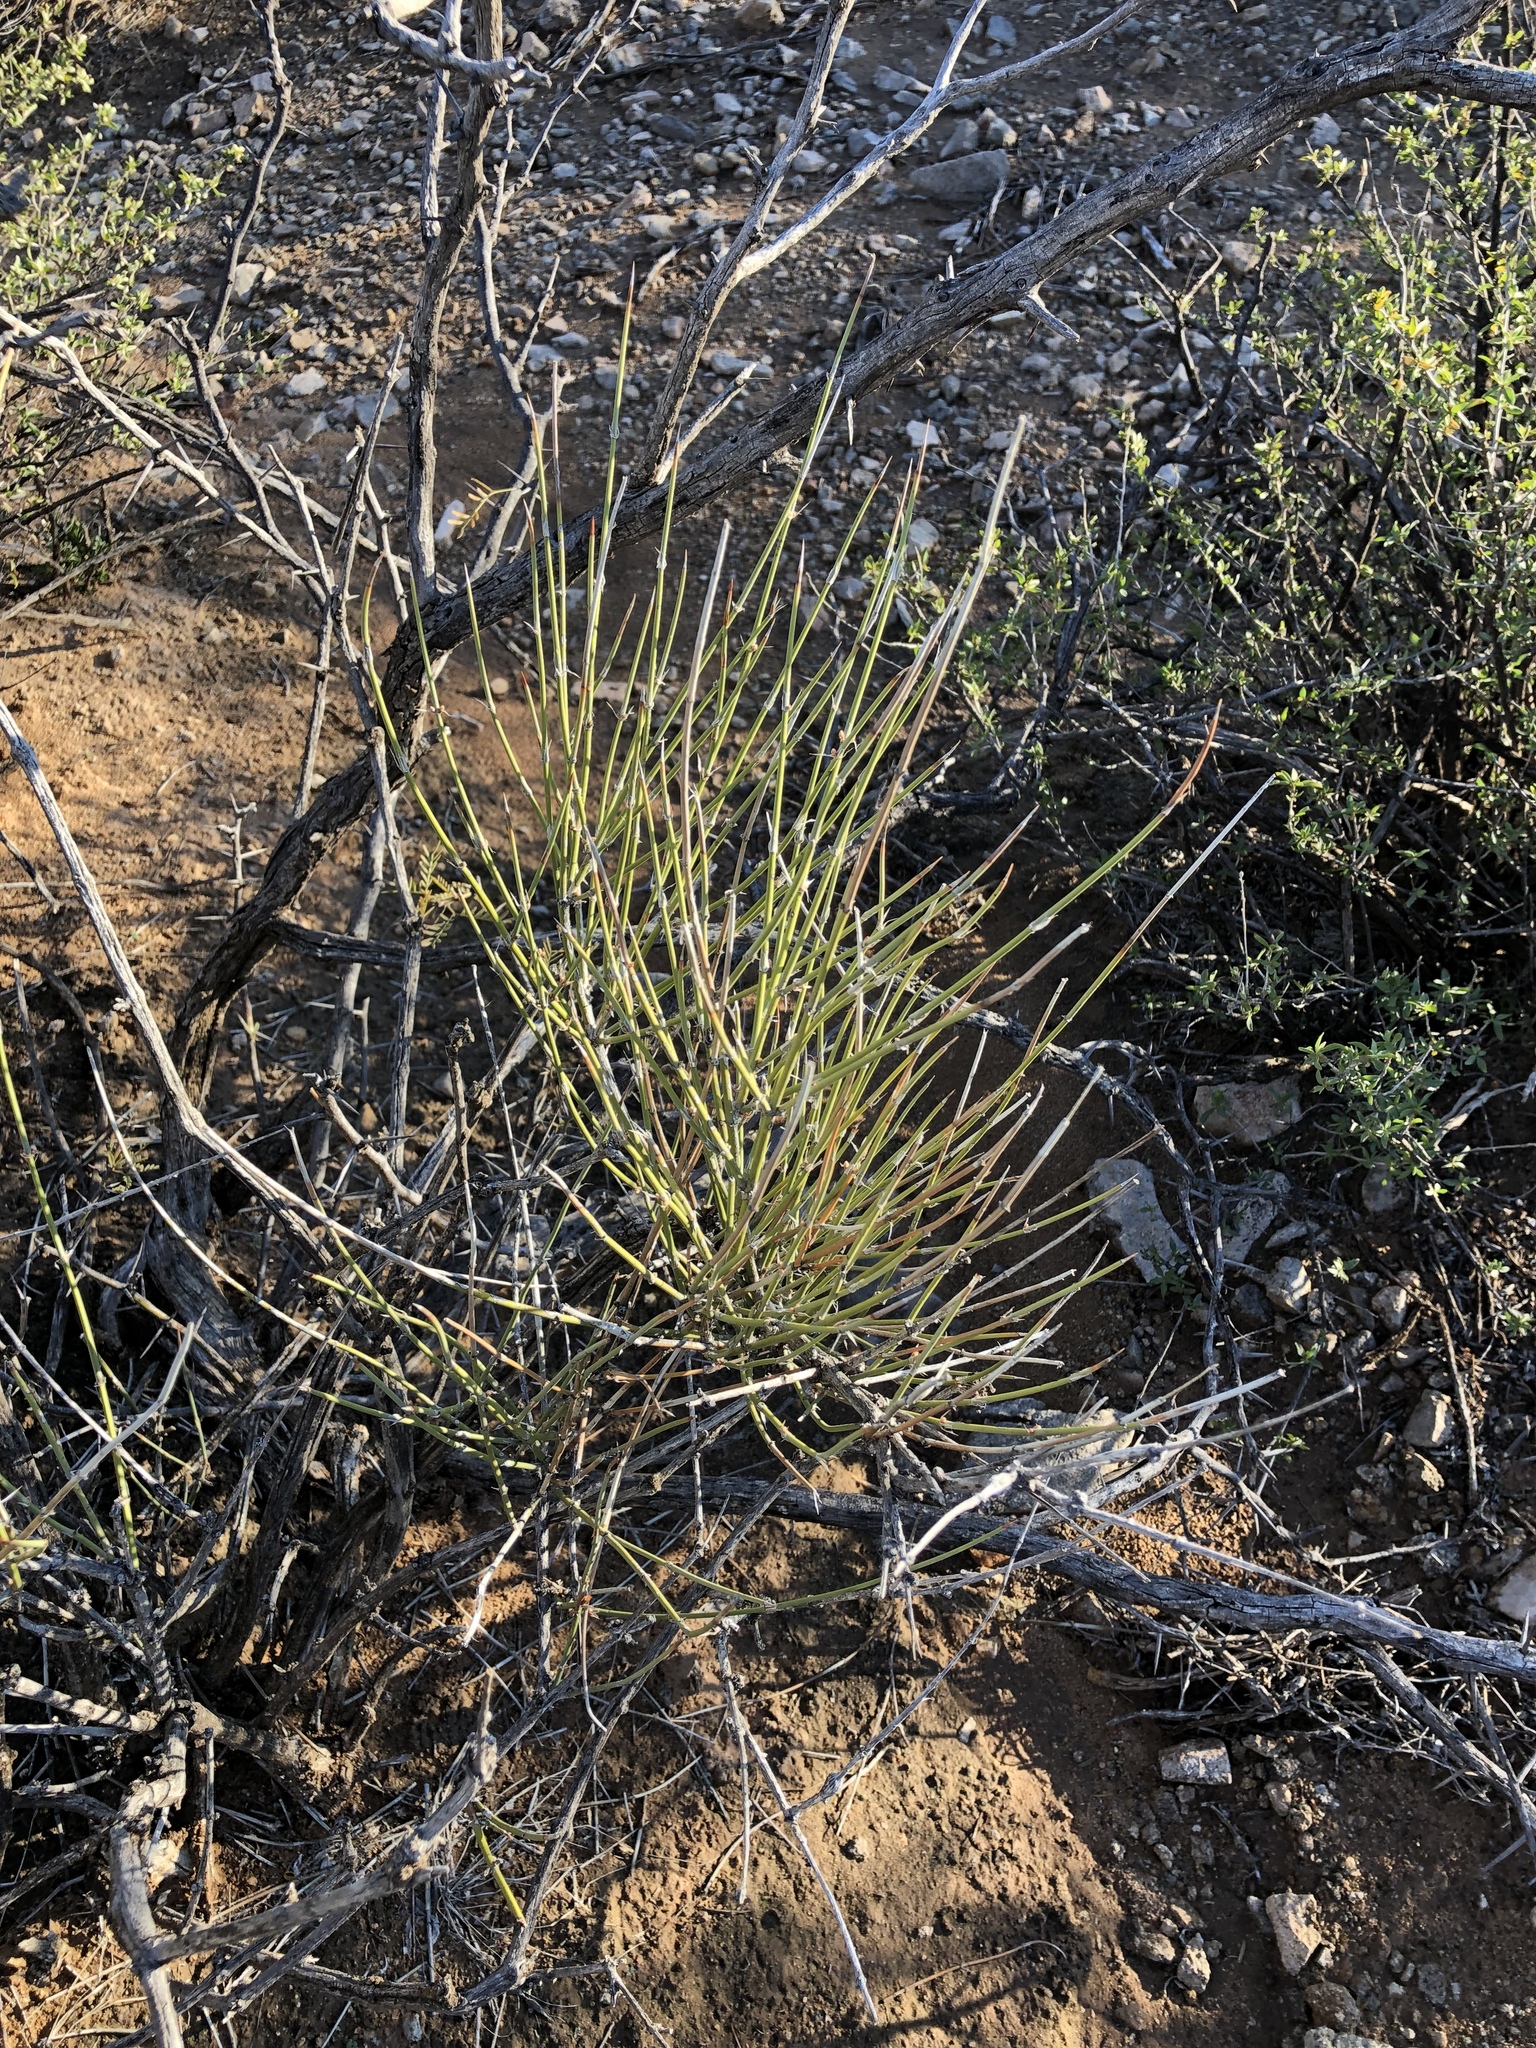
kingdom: Plantae
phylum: Tracheophyta
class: Gnetopsida
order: Ephedrales
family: Ephedraceae
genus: Ephedra
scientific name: Ephedra aspera
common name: Boundary ephedra
